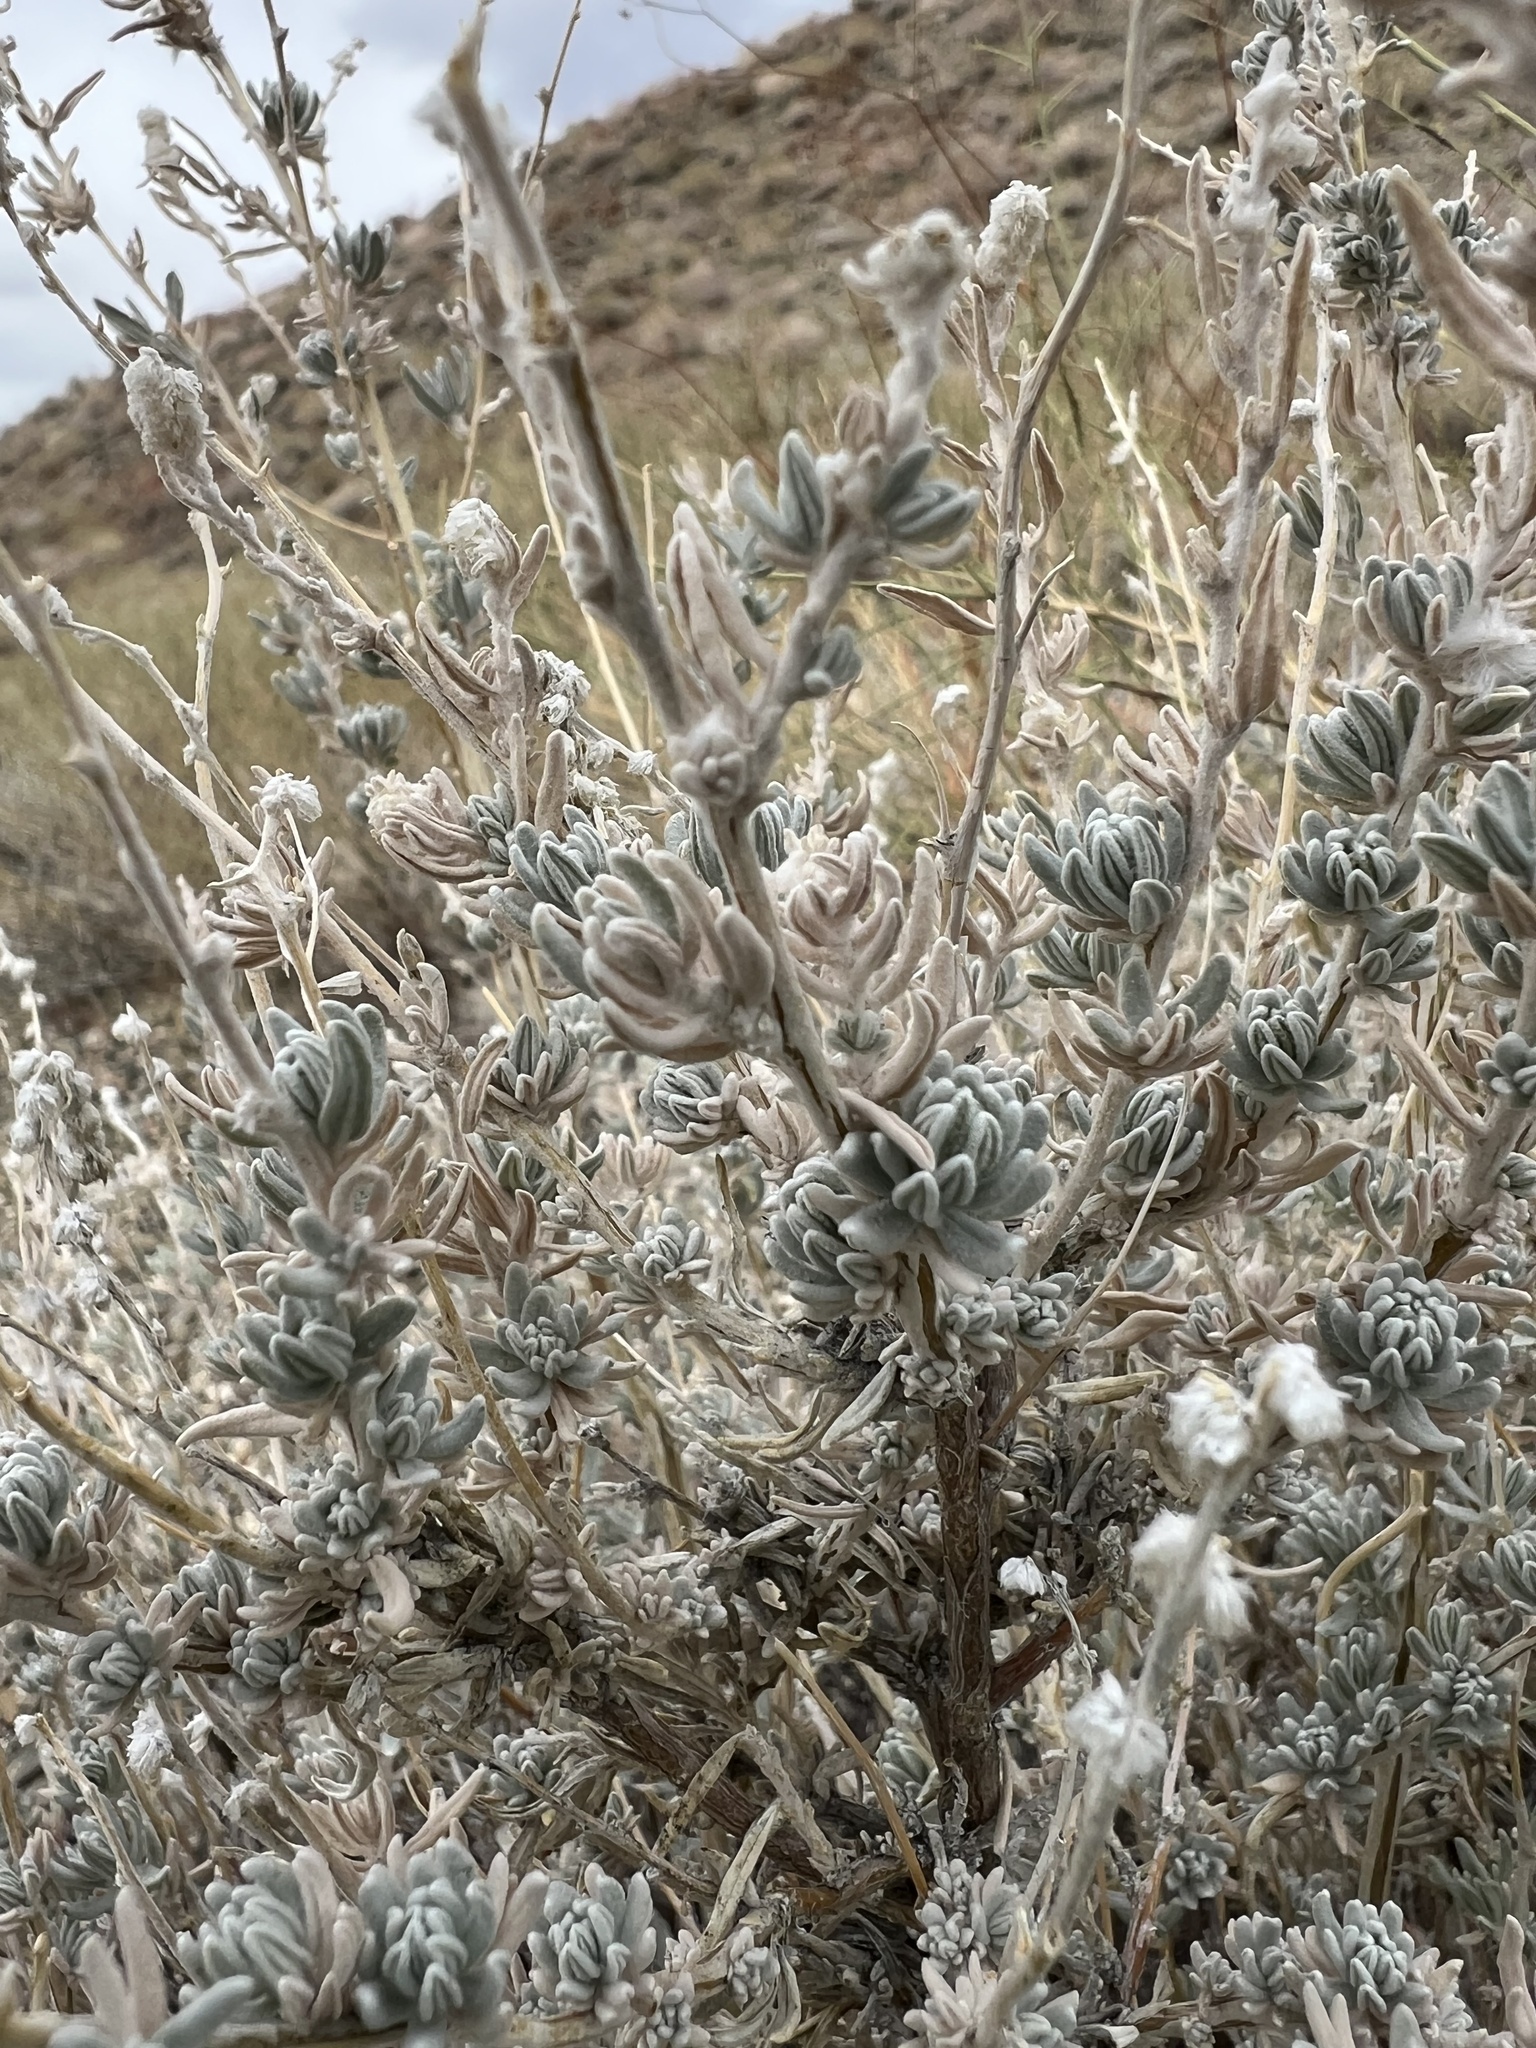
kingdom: Plantae
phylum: Tracheophyta
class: Magnoliopsida
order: Caryophyllales
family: Amaranthaceae
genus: Krascheninnikovia
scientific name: Krascheninnikovia lanata
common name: Winterfat
